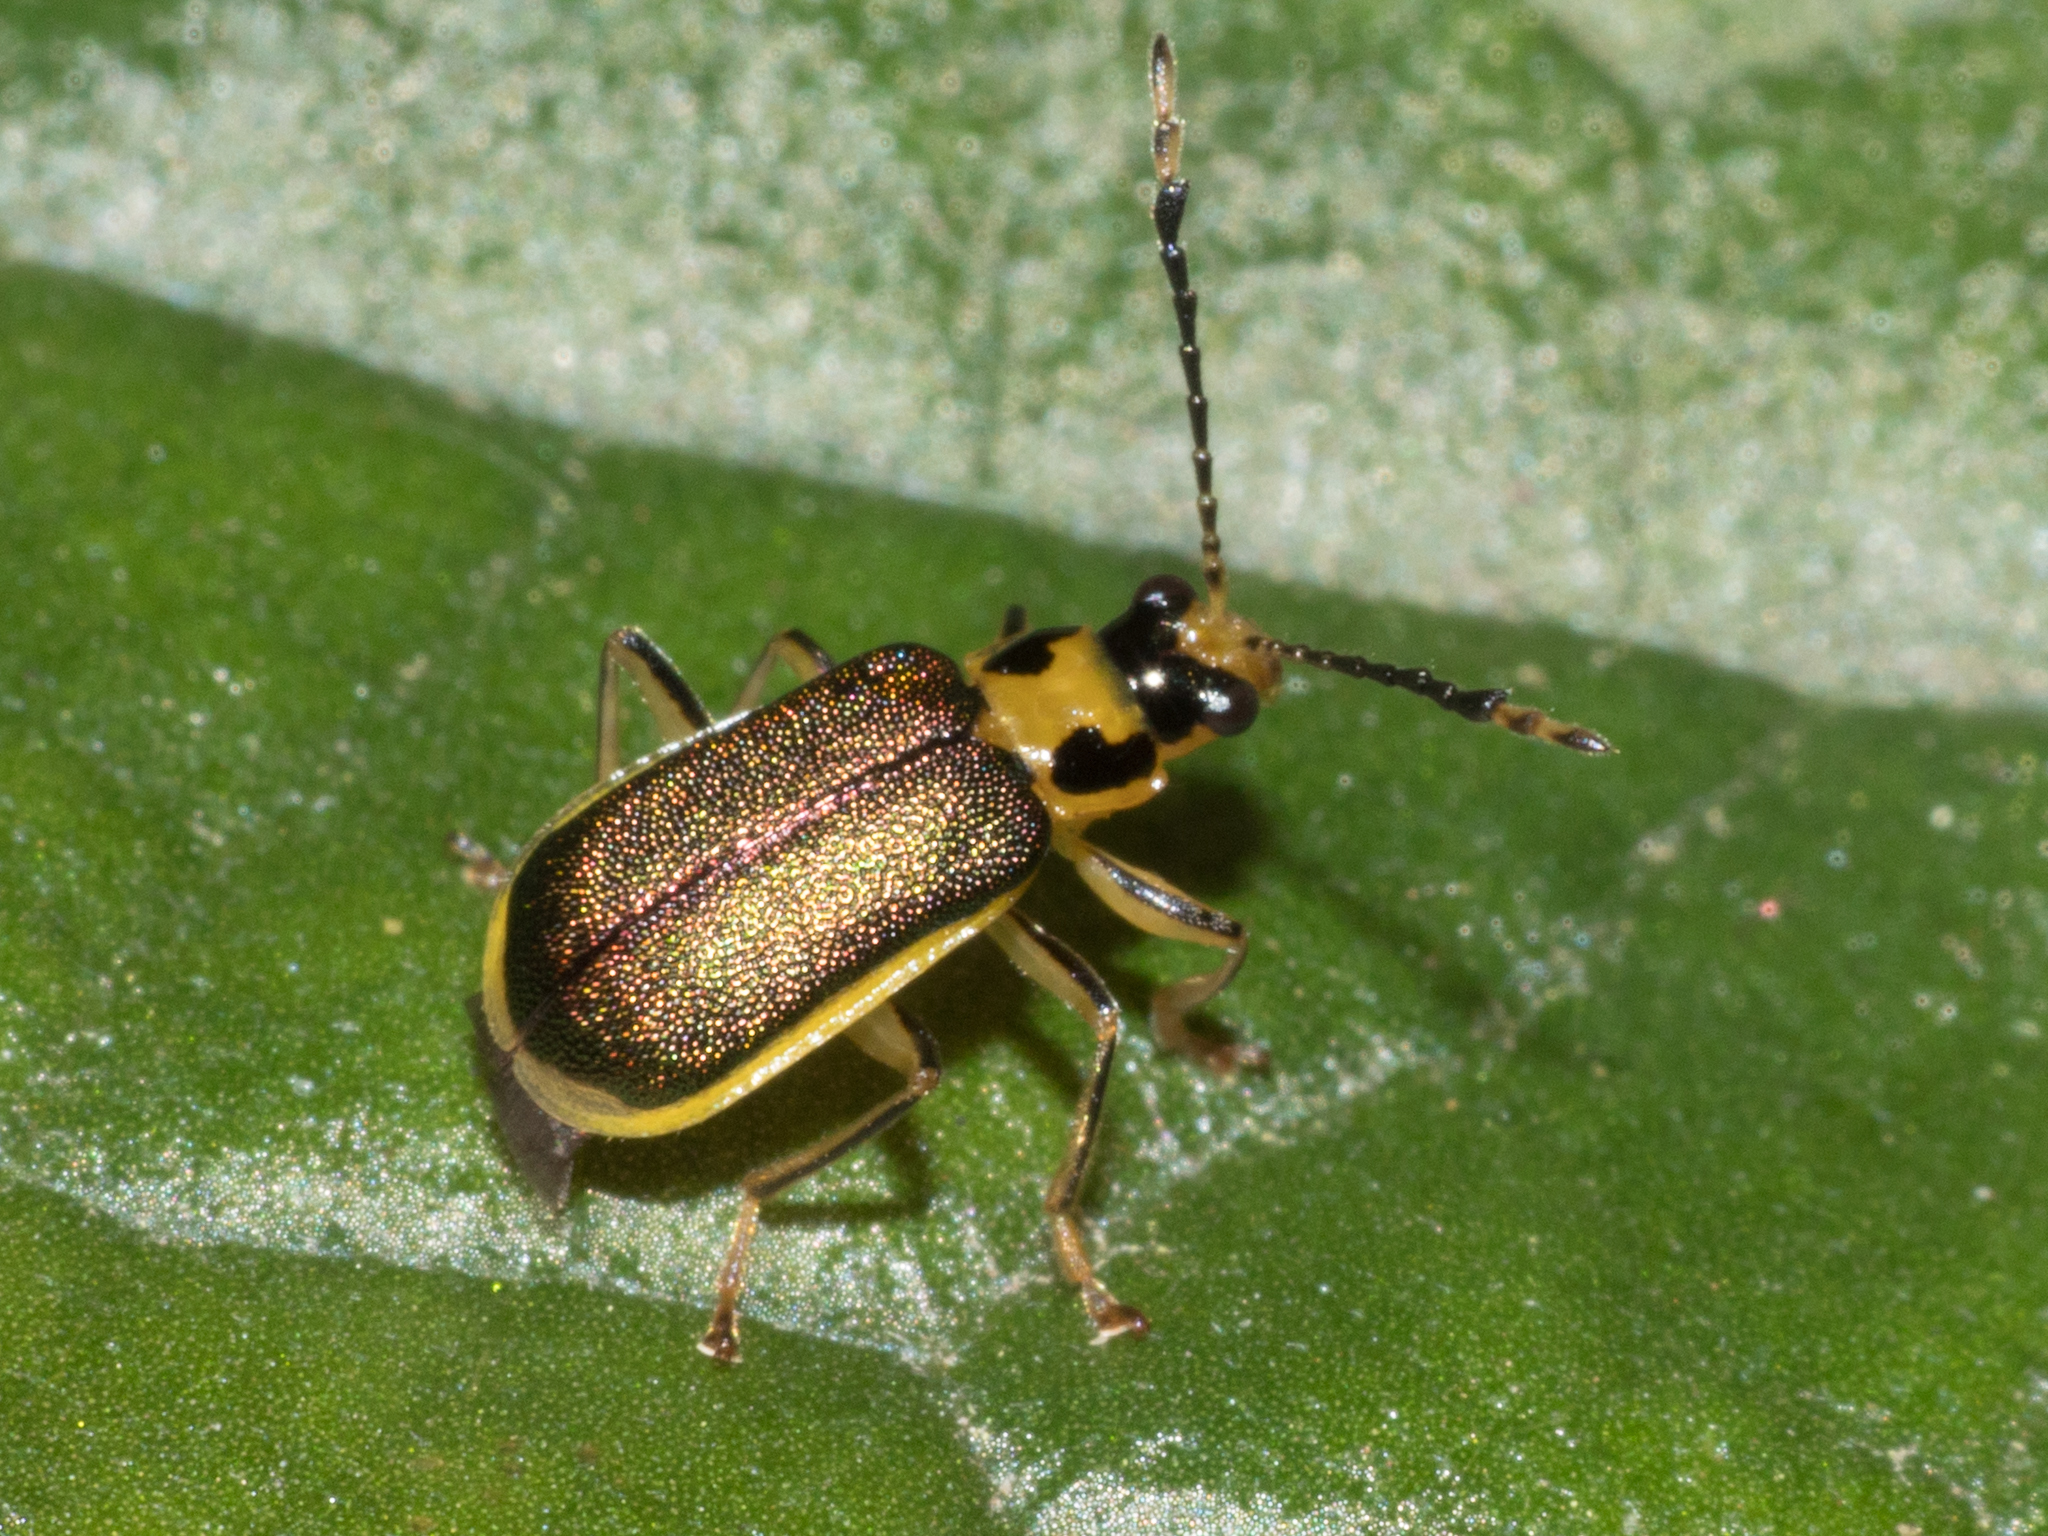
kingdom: Animalia
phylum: Arthropoda
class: Insecta
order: Coleoptera
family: Chrysomelidae
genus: Buckibrotica
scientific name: Buckibrotica
